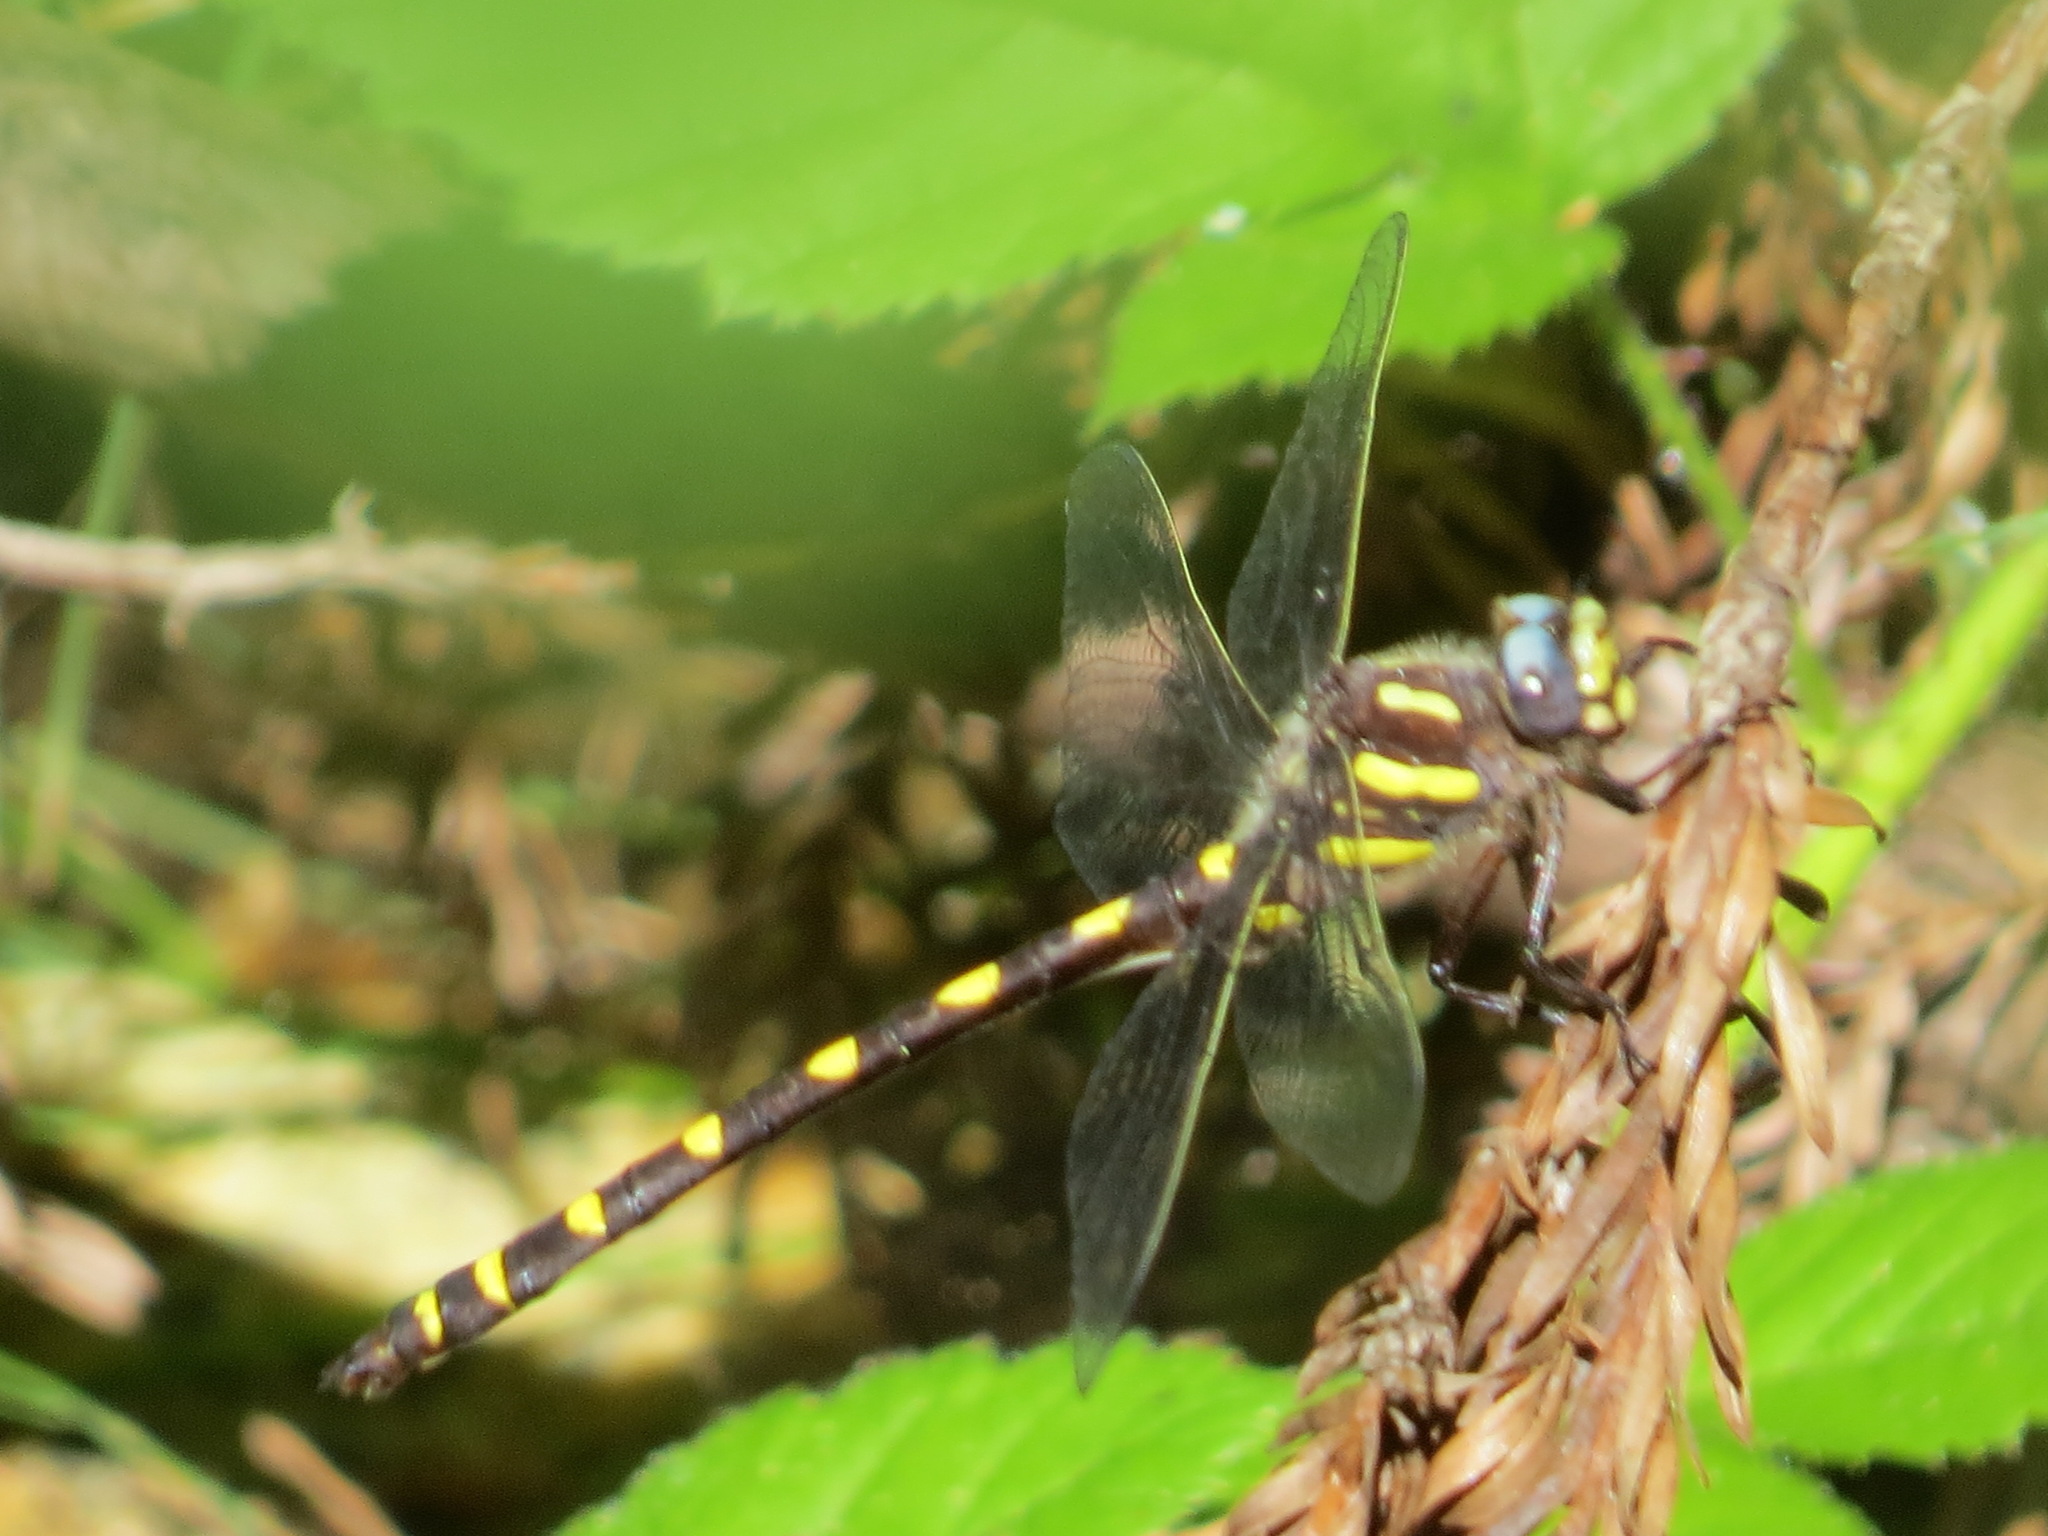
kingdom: Animalia
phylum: Arthropoda
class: Insecta
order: Odonata
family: Cordulegastridae
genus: Cordulegaster
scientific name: Cordulegaster dorsalis
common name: Pacific spiketail
